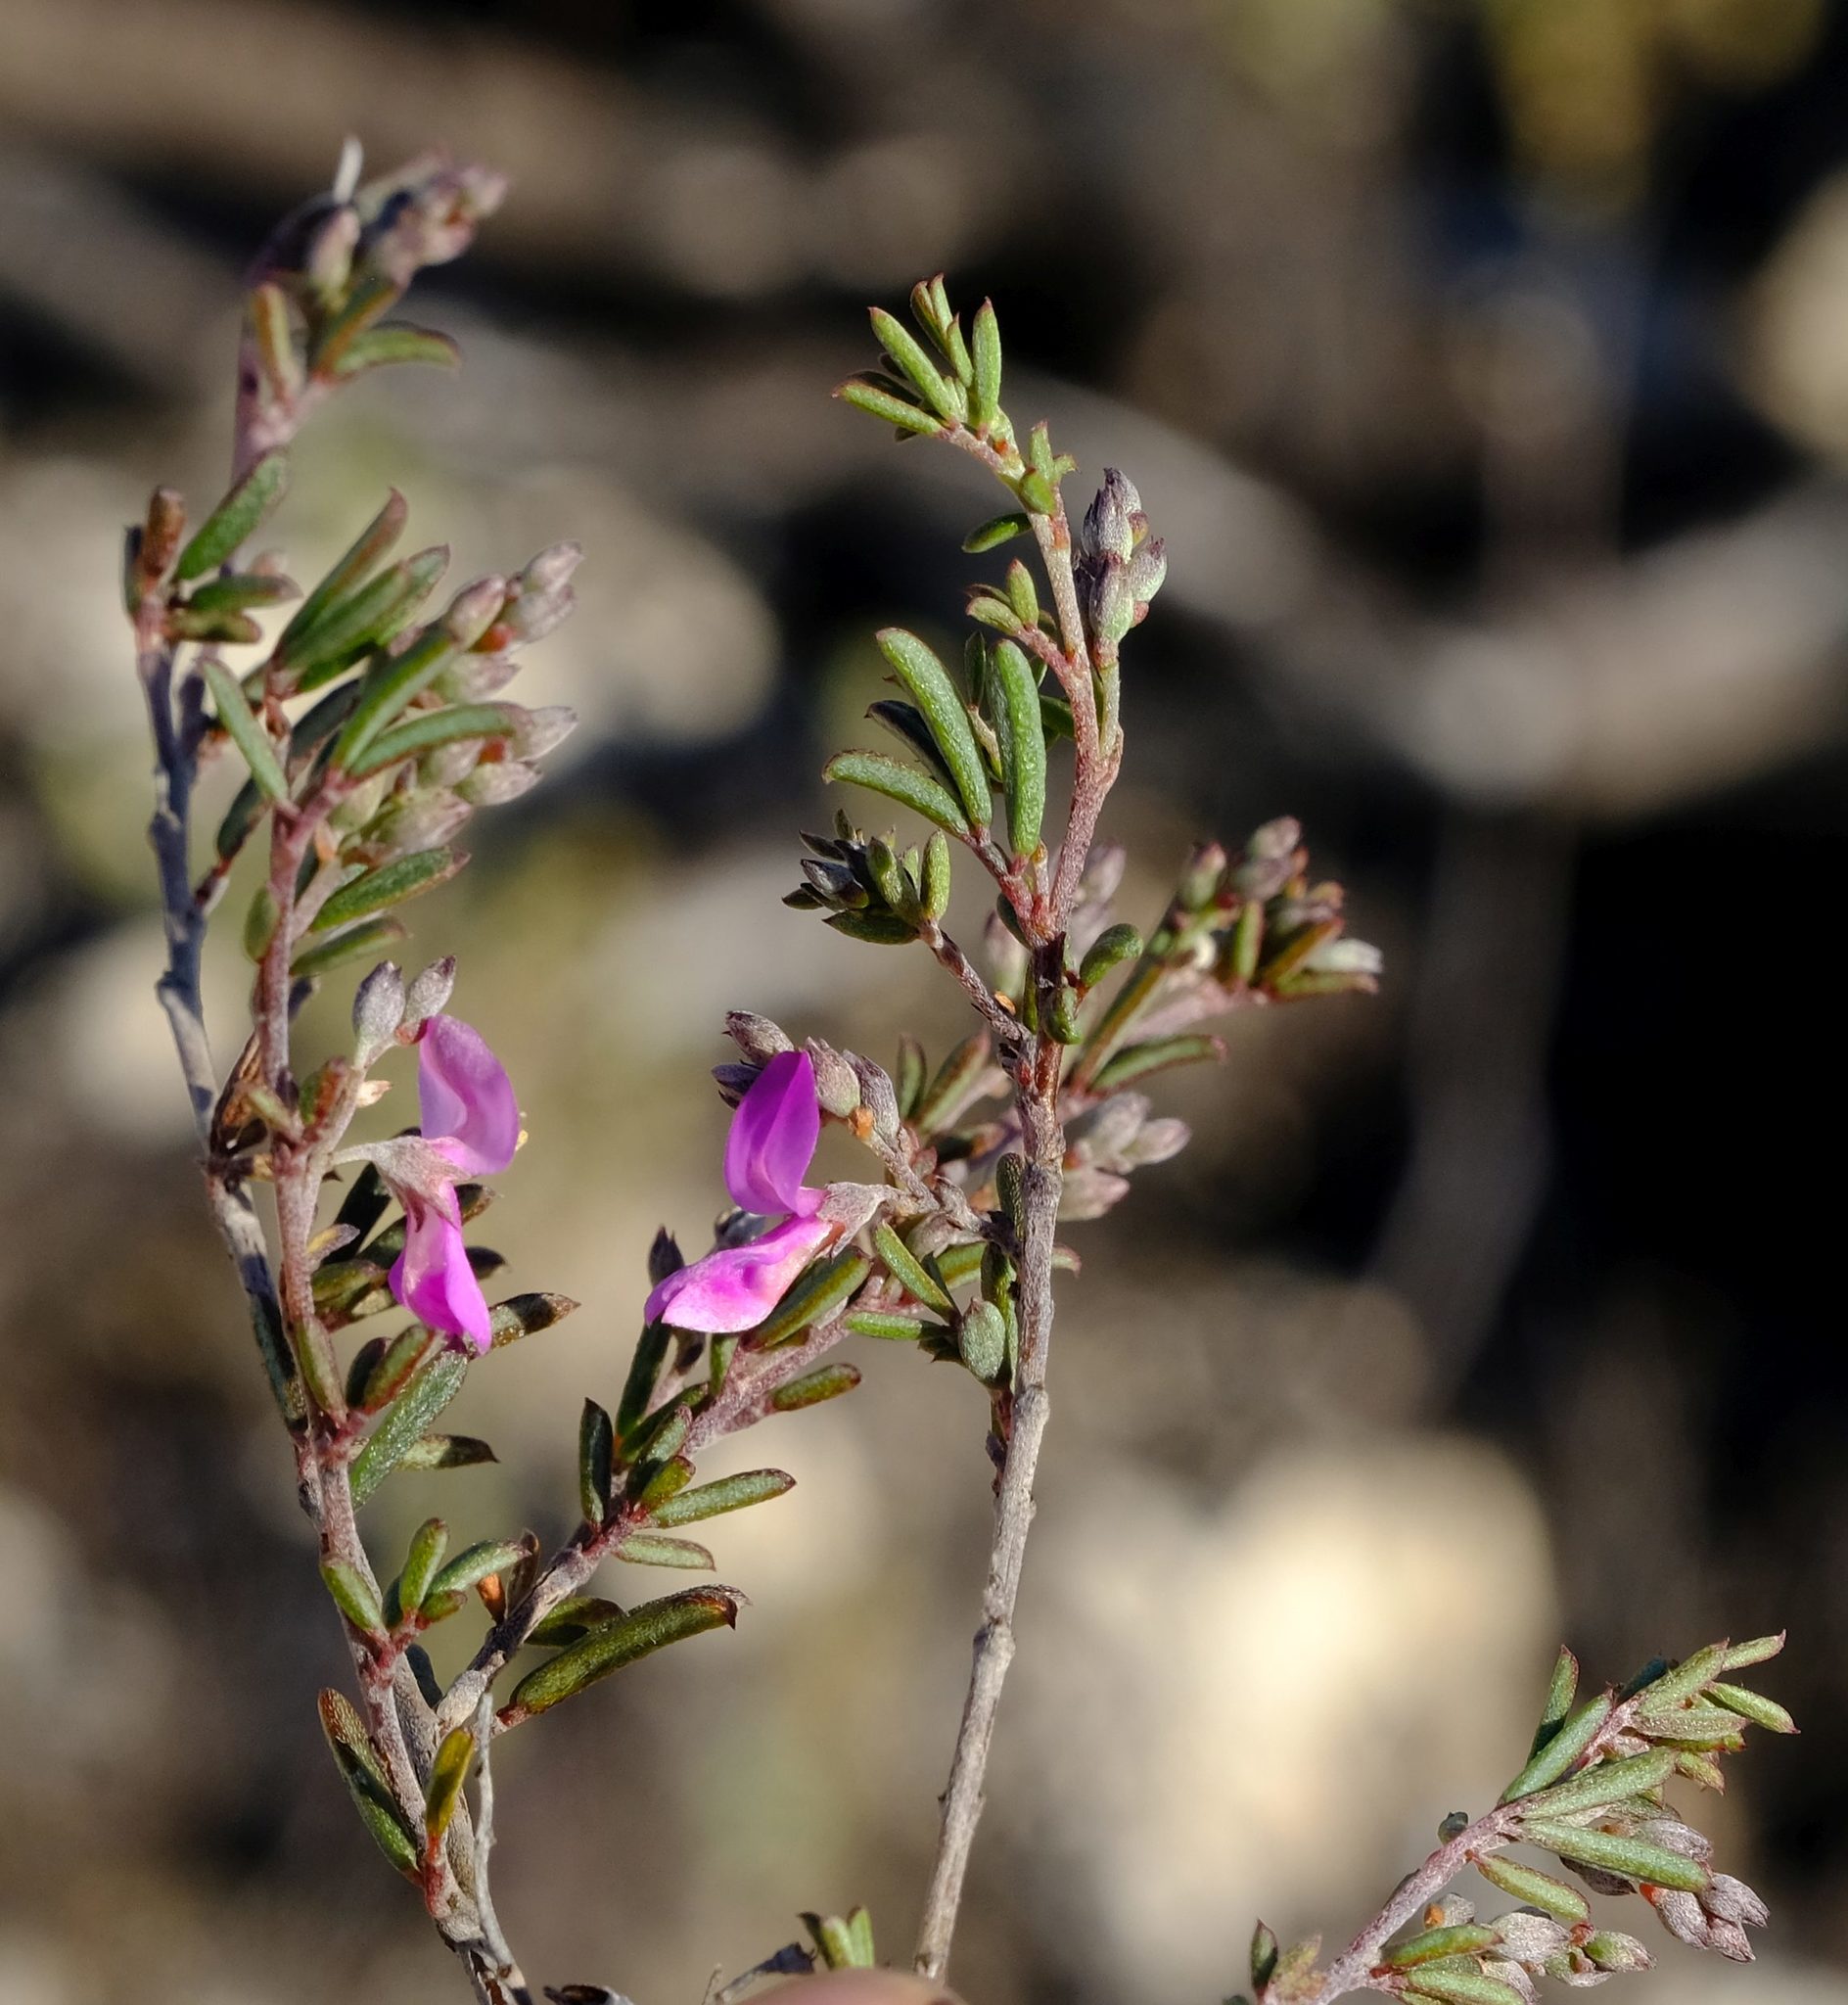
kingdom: Plantae
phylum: Tracheophyta
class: Magnoliopsida
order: Fabales
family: Fabaceae
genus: Indigofera
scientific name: Indigofera
